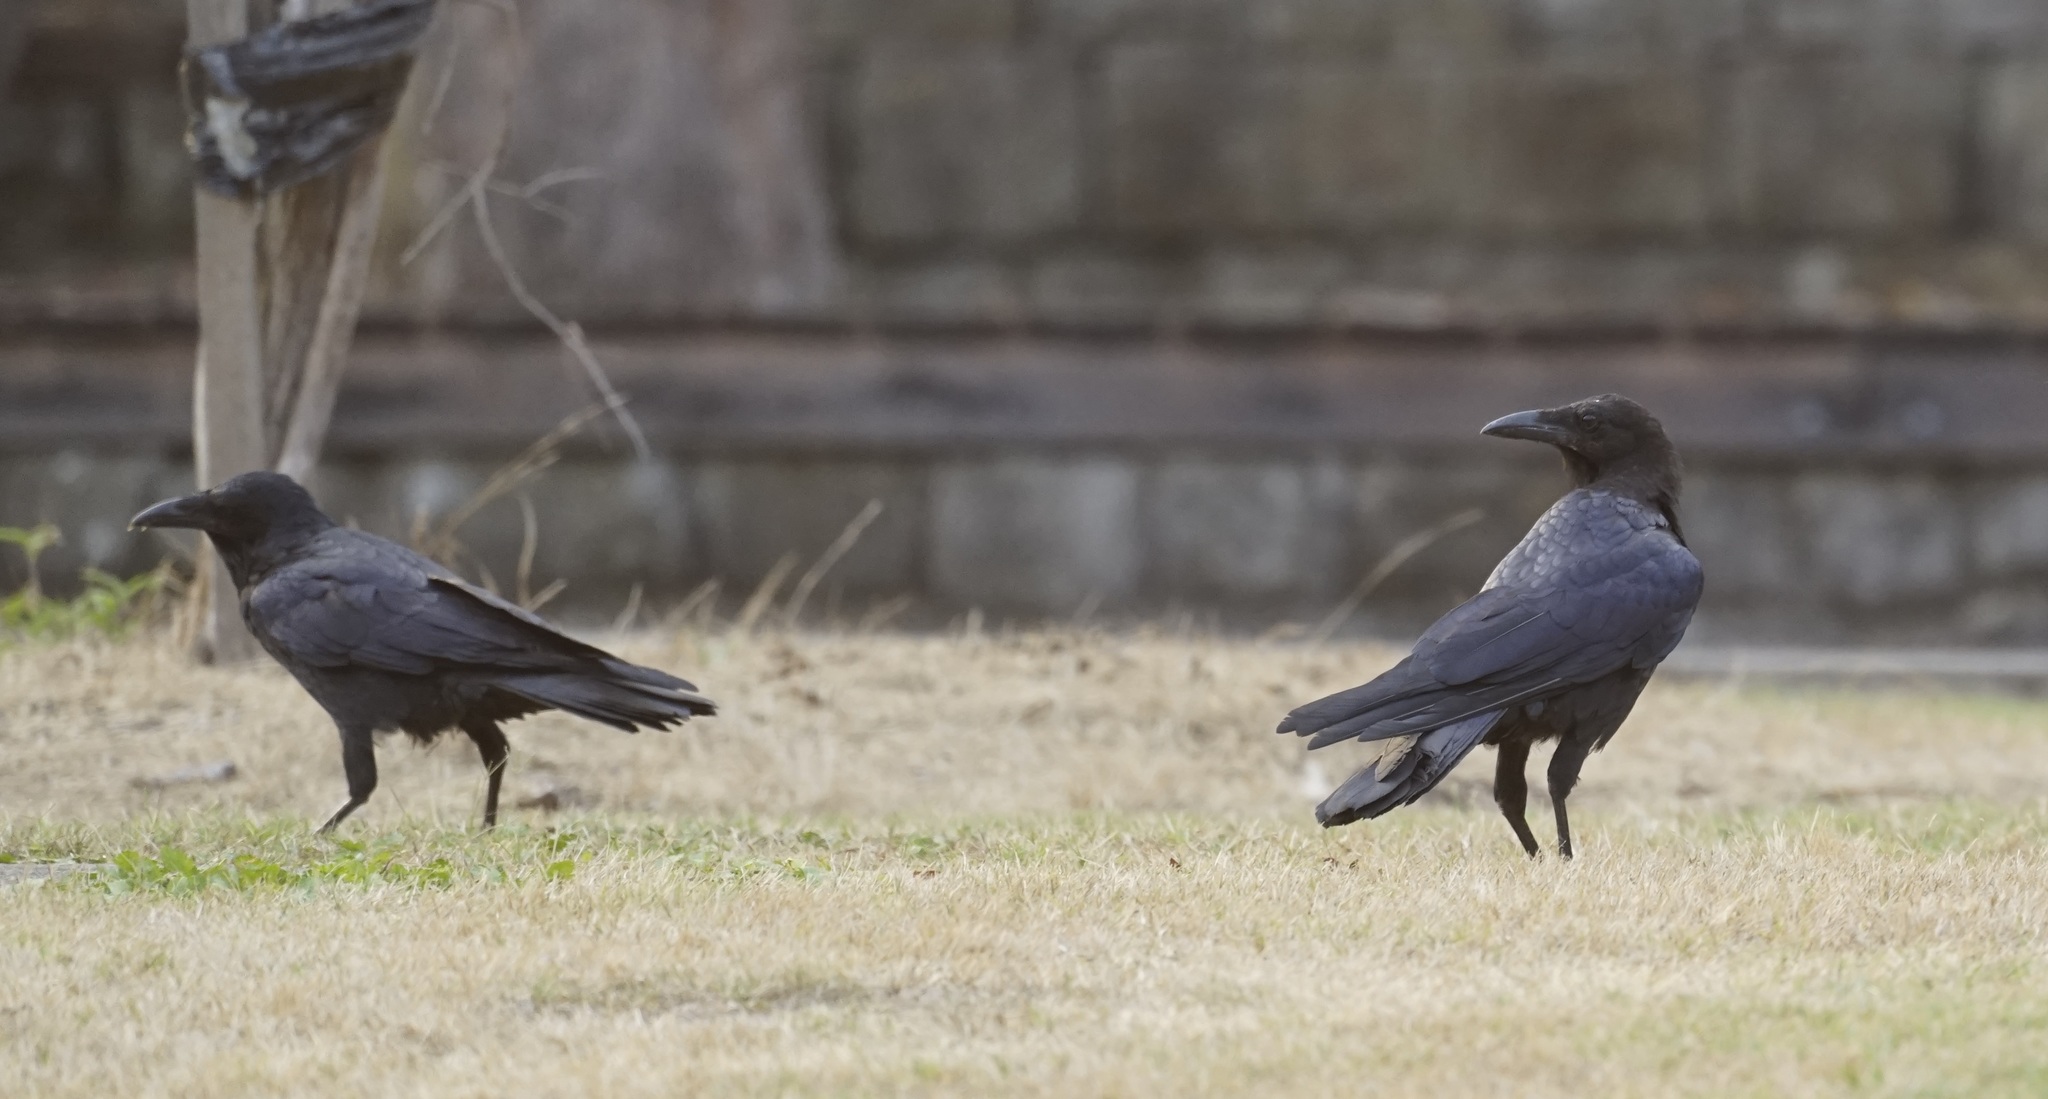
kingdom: Animalia
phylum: Chordata
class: Aves
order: Passeriformes
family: Corvidae
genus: Corvus
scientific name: Corvus coronoides
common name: Australian raven
